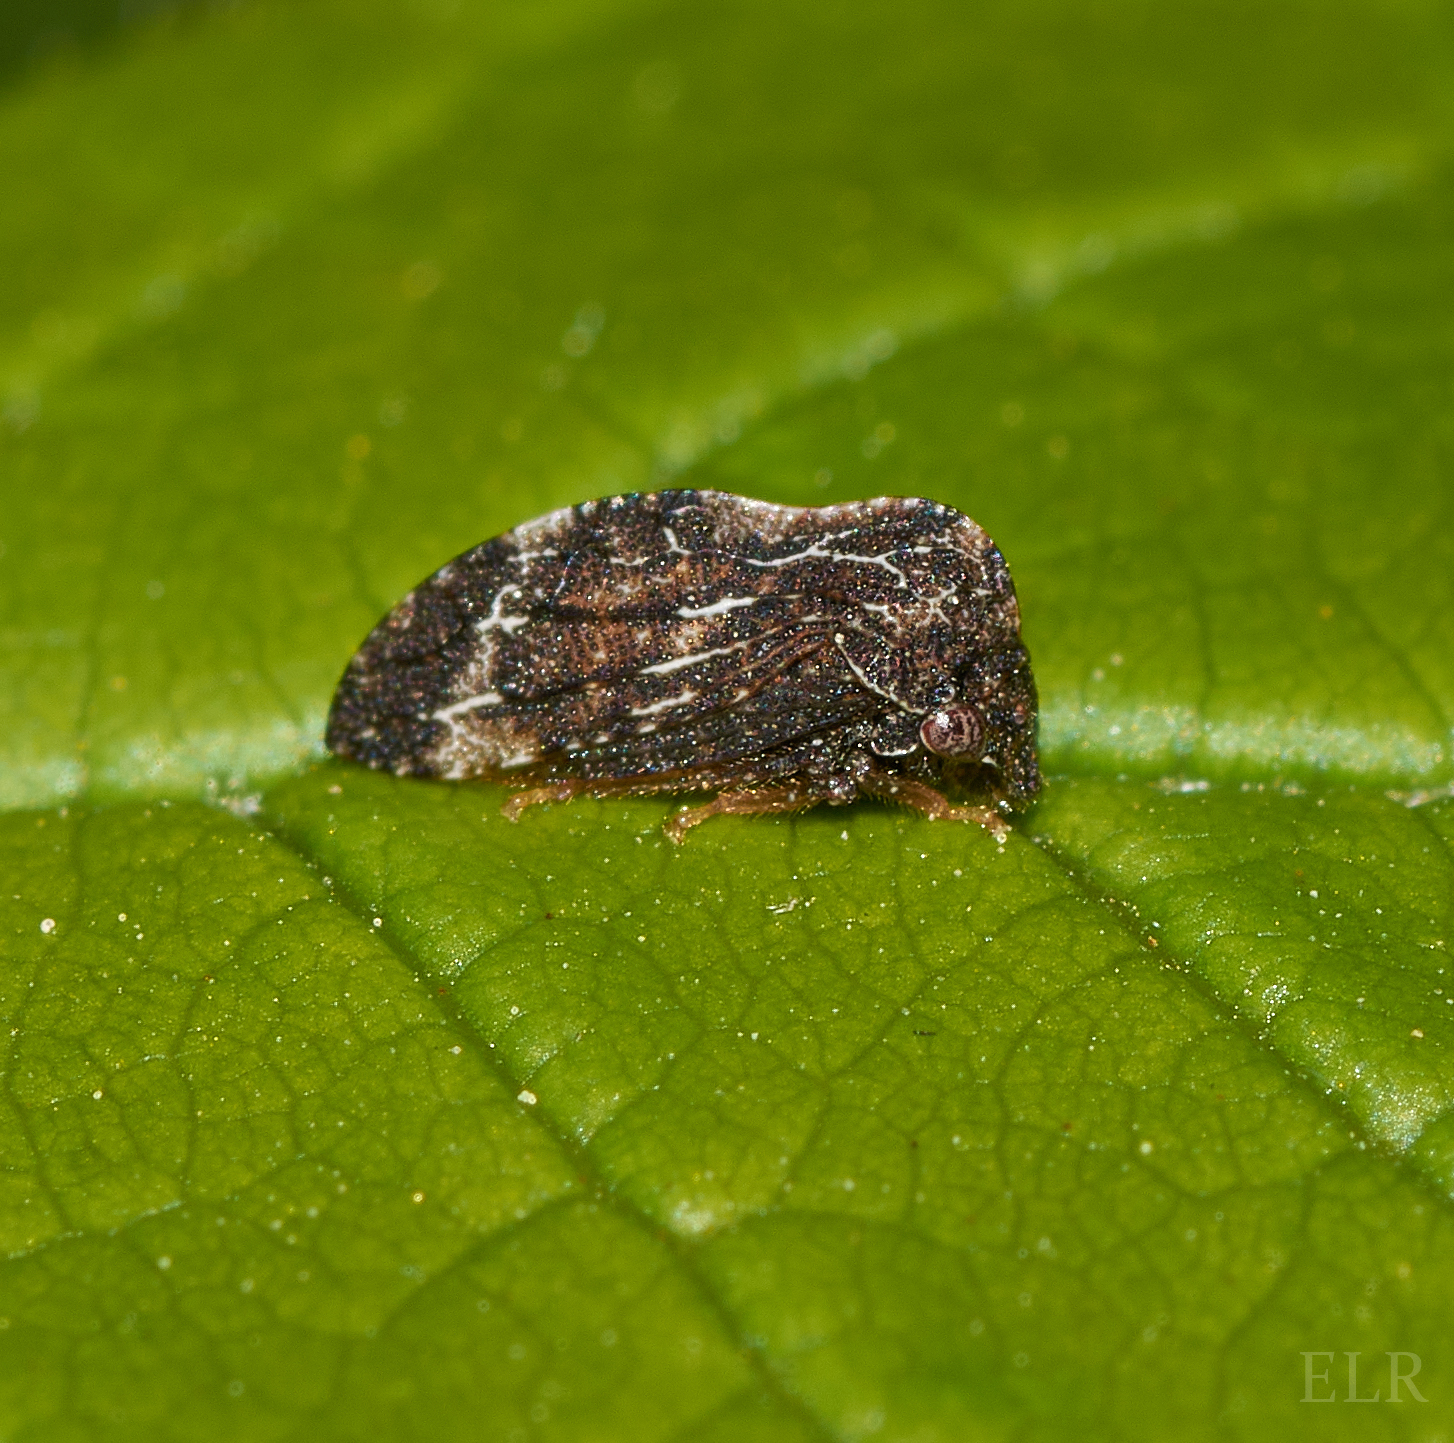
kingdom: Animalia
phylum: Arthropoda
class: Insecta
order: Hemiptera
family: Membracidae
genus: Publilia
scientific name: Publilia concava
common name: Aster treehopper
